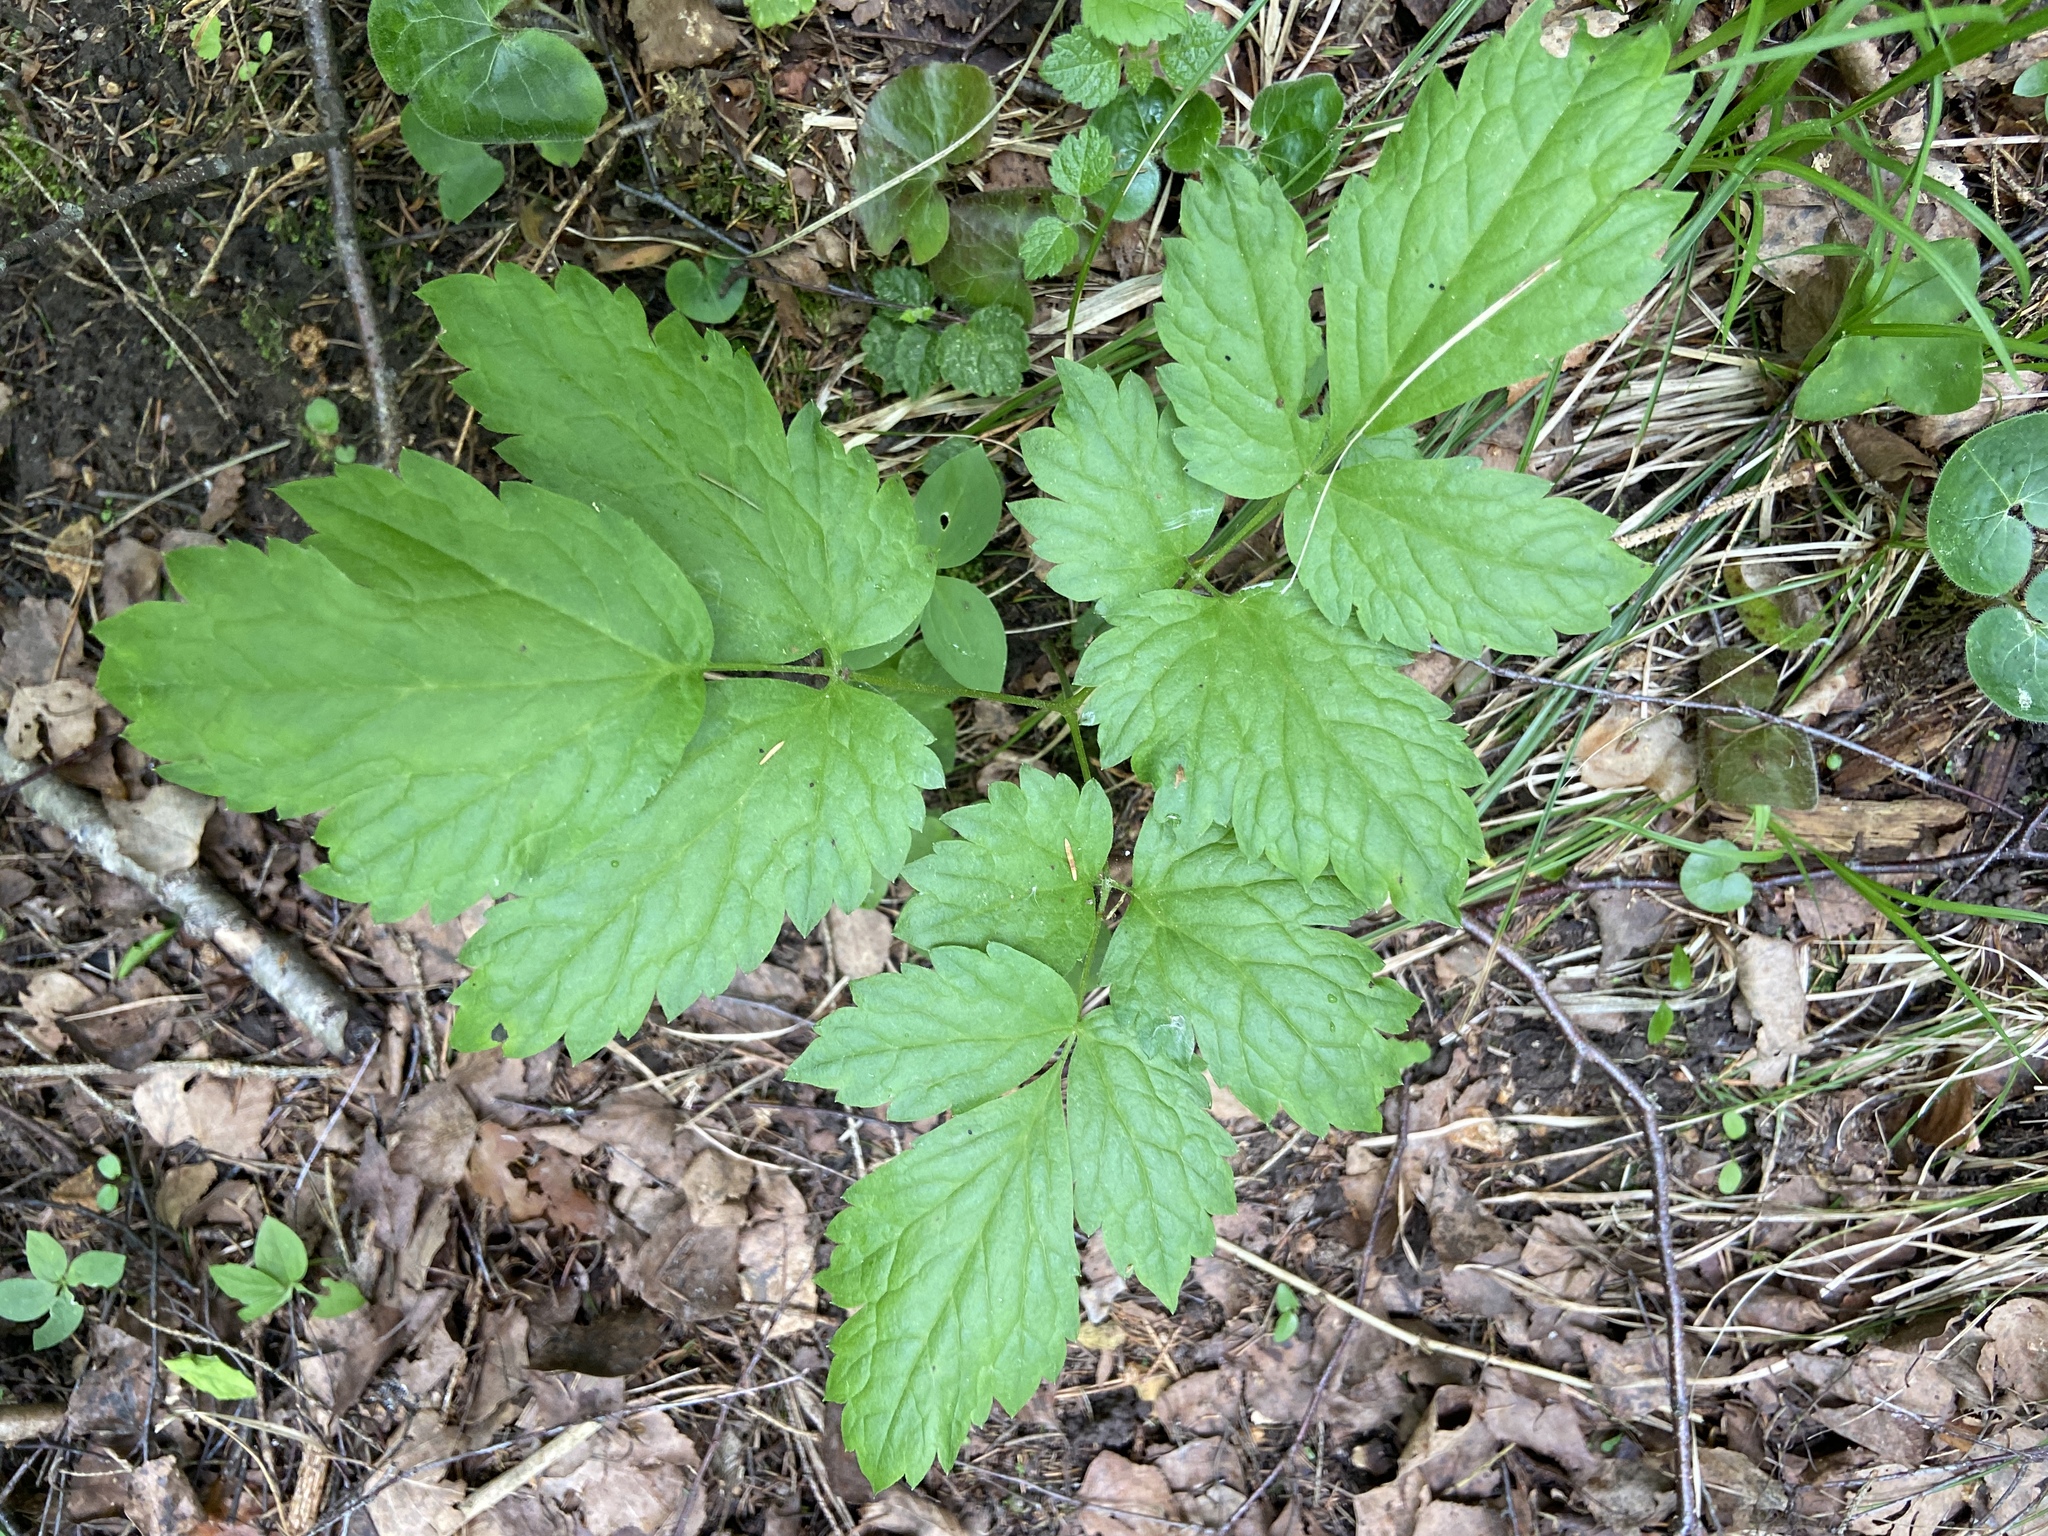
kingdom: Plantae
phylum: Tracheophyta
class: Magnoliopsida
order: Ranunculales
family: Ranunculaceae
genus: Actaea
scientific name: Actaea spicata
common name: Baneberry
